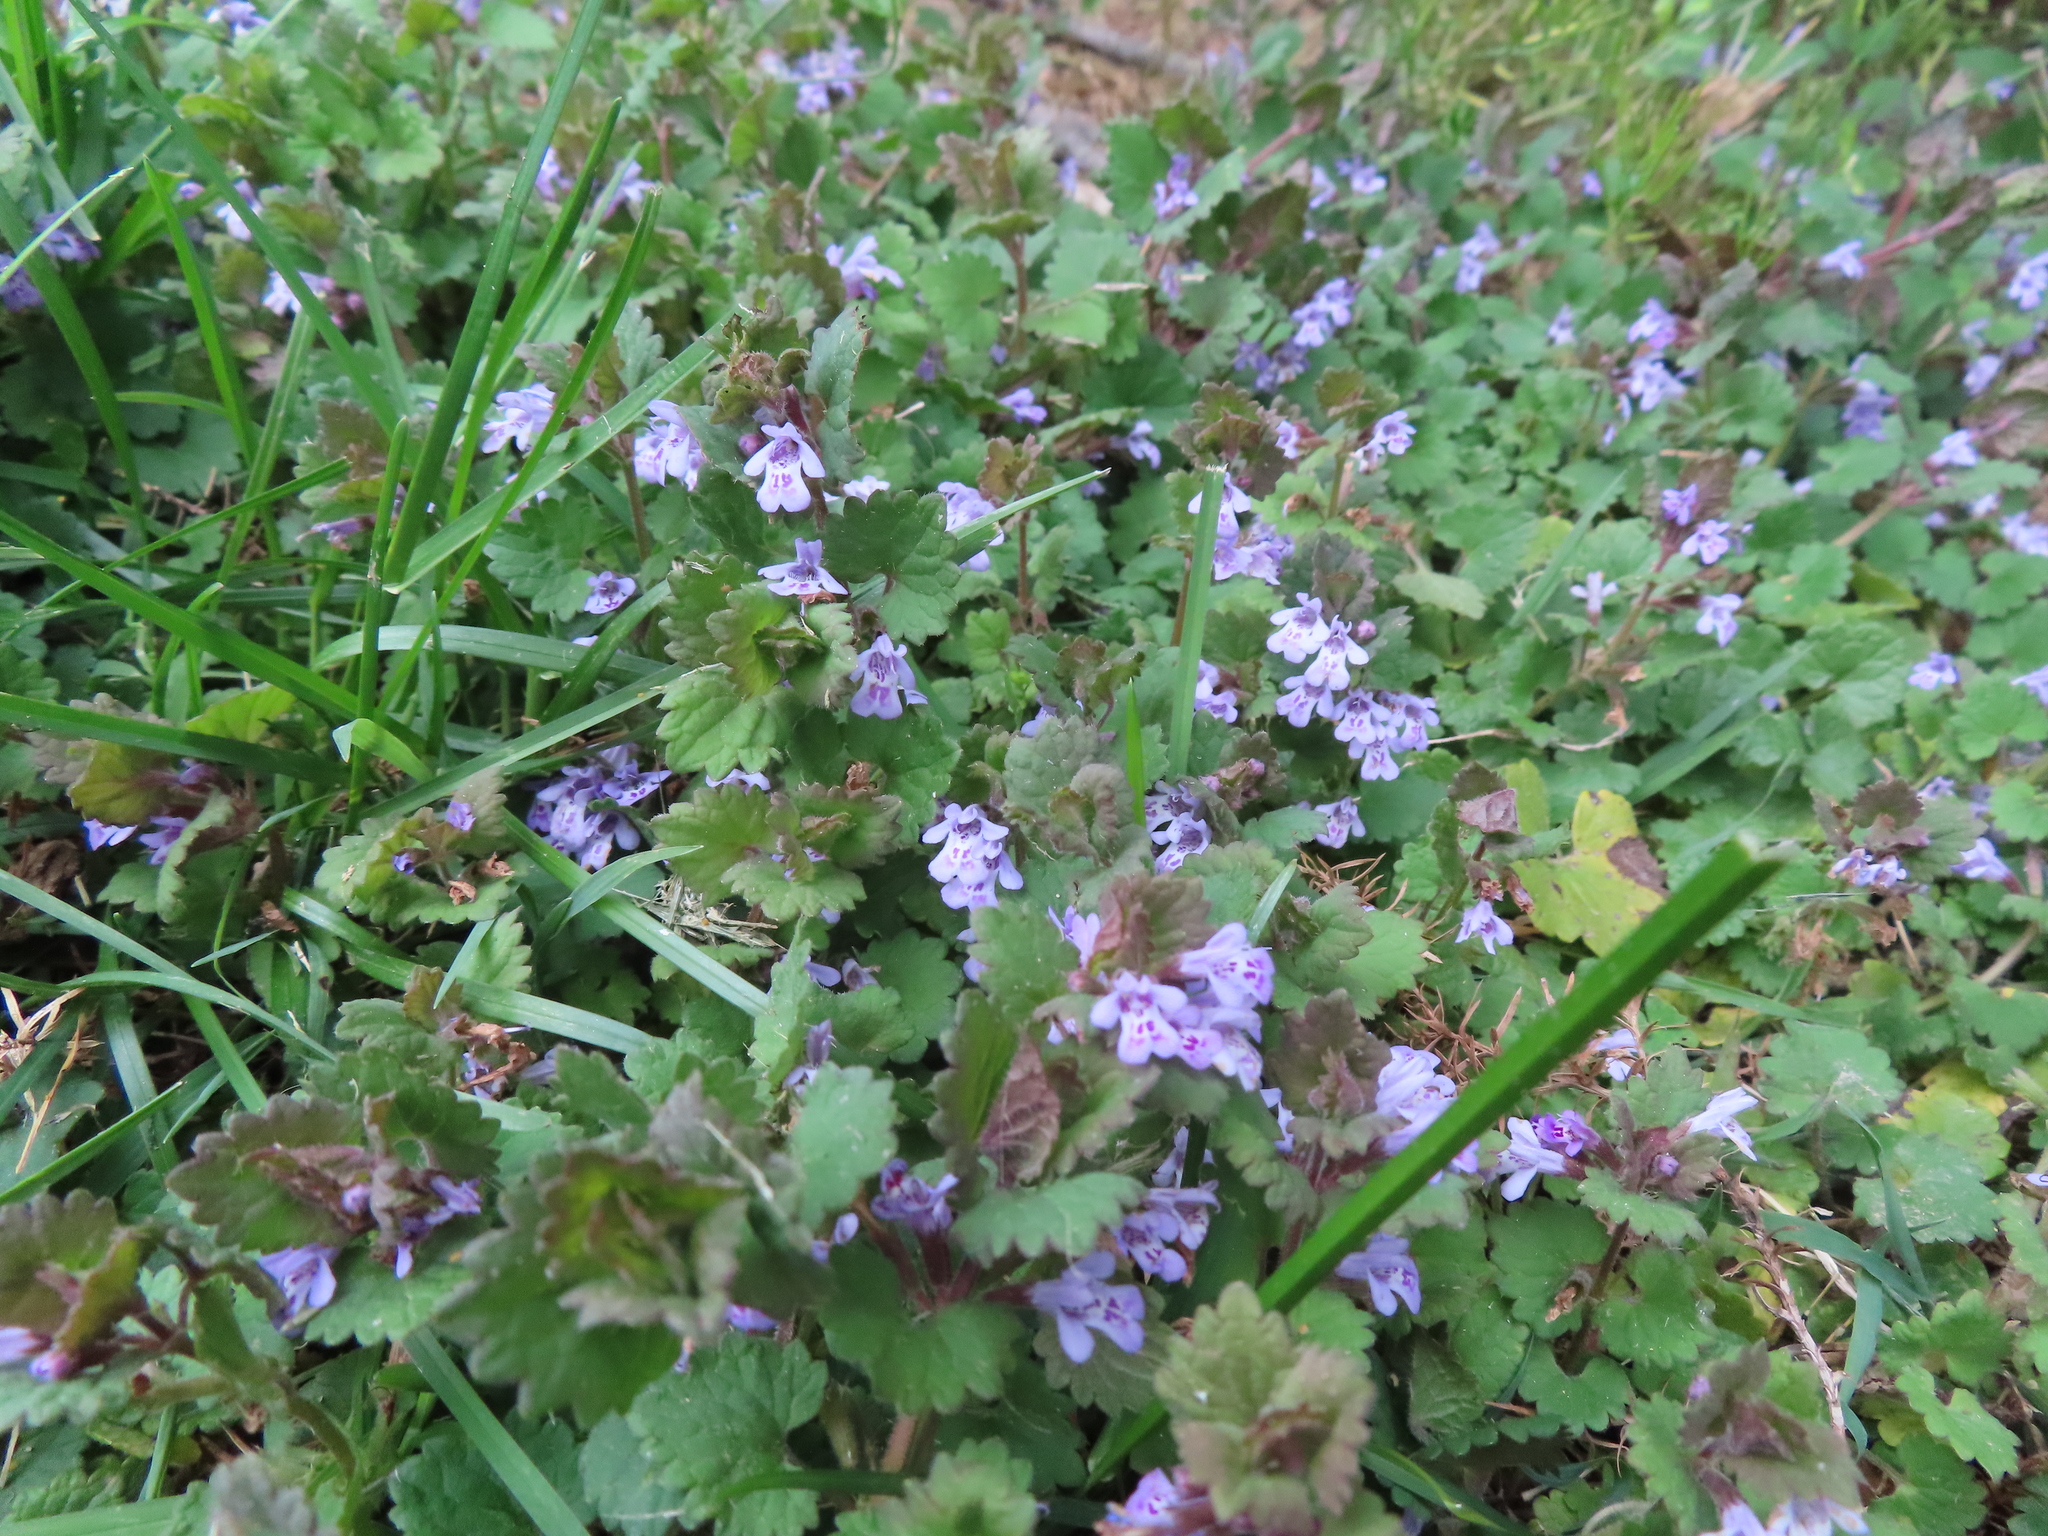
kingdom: Plantae
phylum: Tracheophyta
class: Magnoliopsida
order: Lamiales
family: Lamiaceae
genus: Glechoma
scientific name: Glechoma hederacea
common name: Ground ivy
